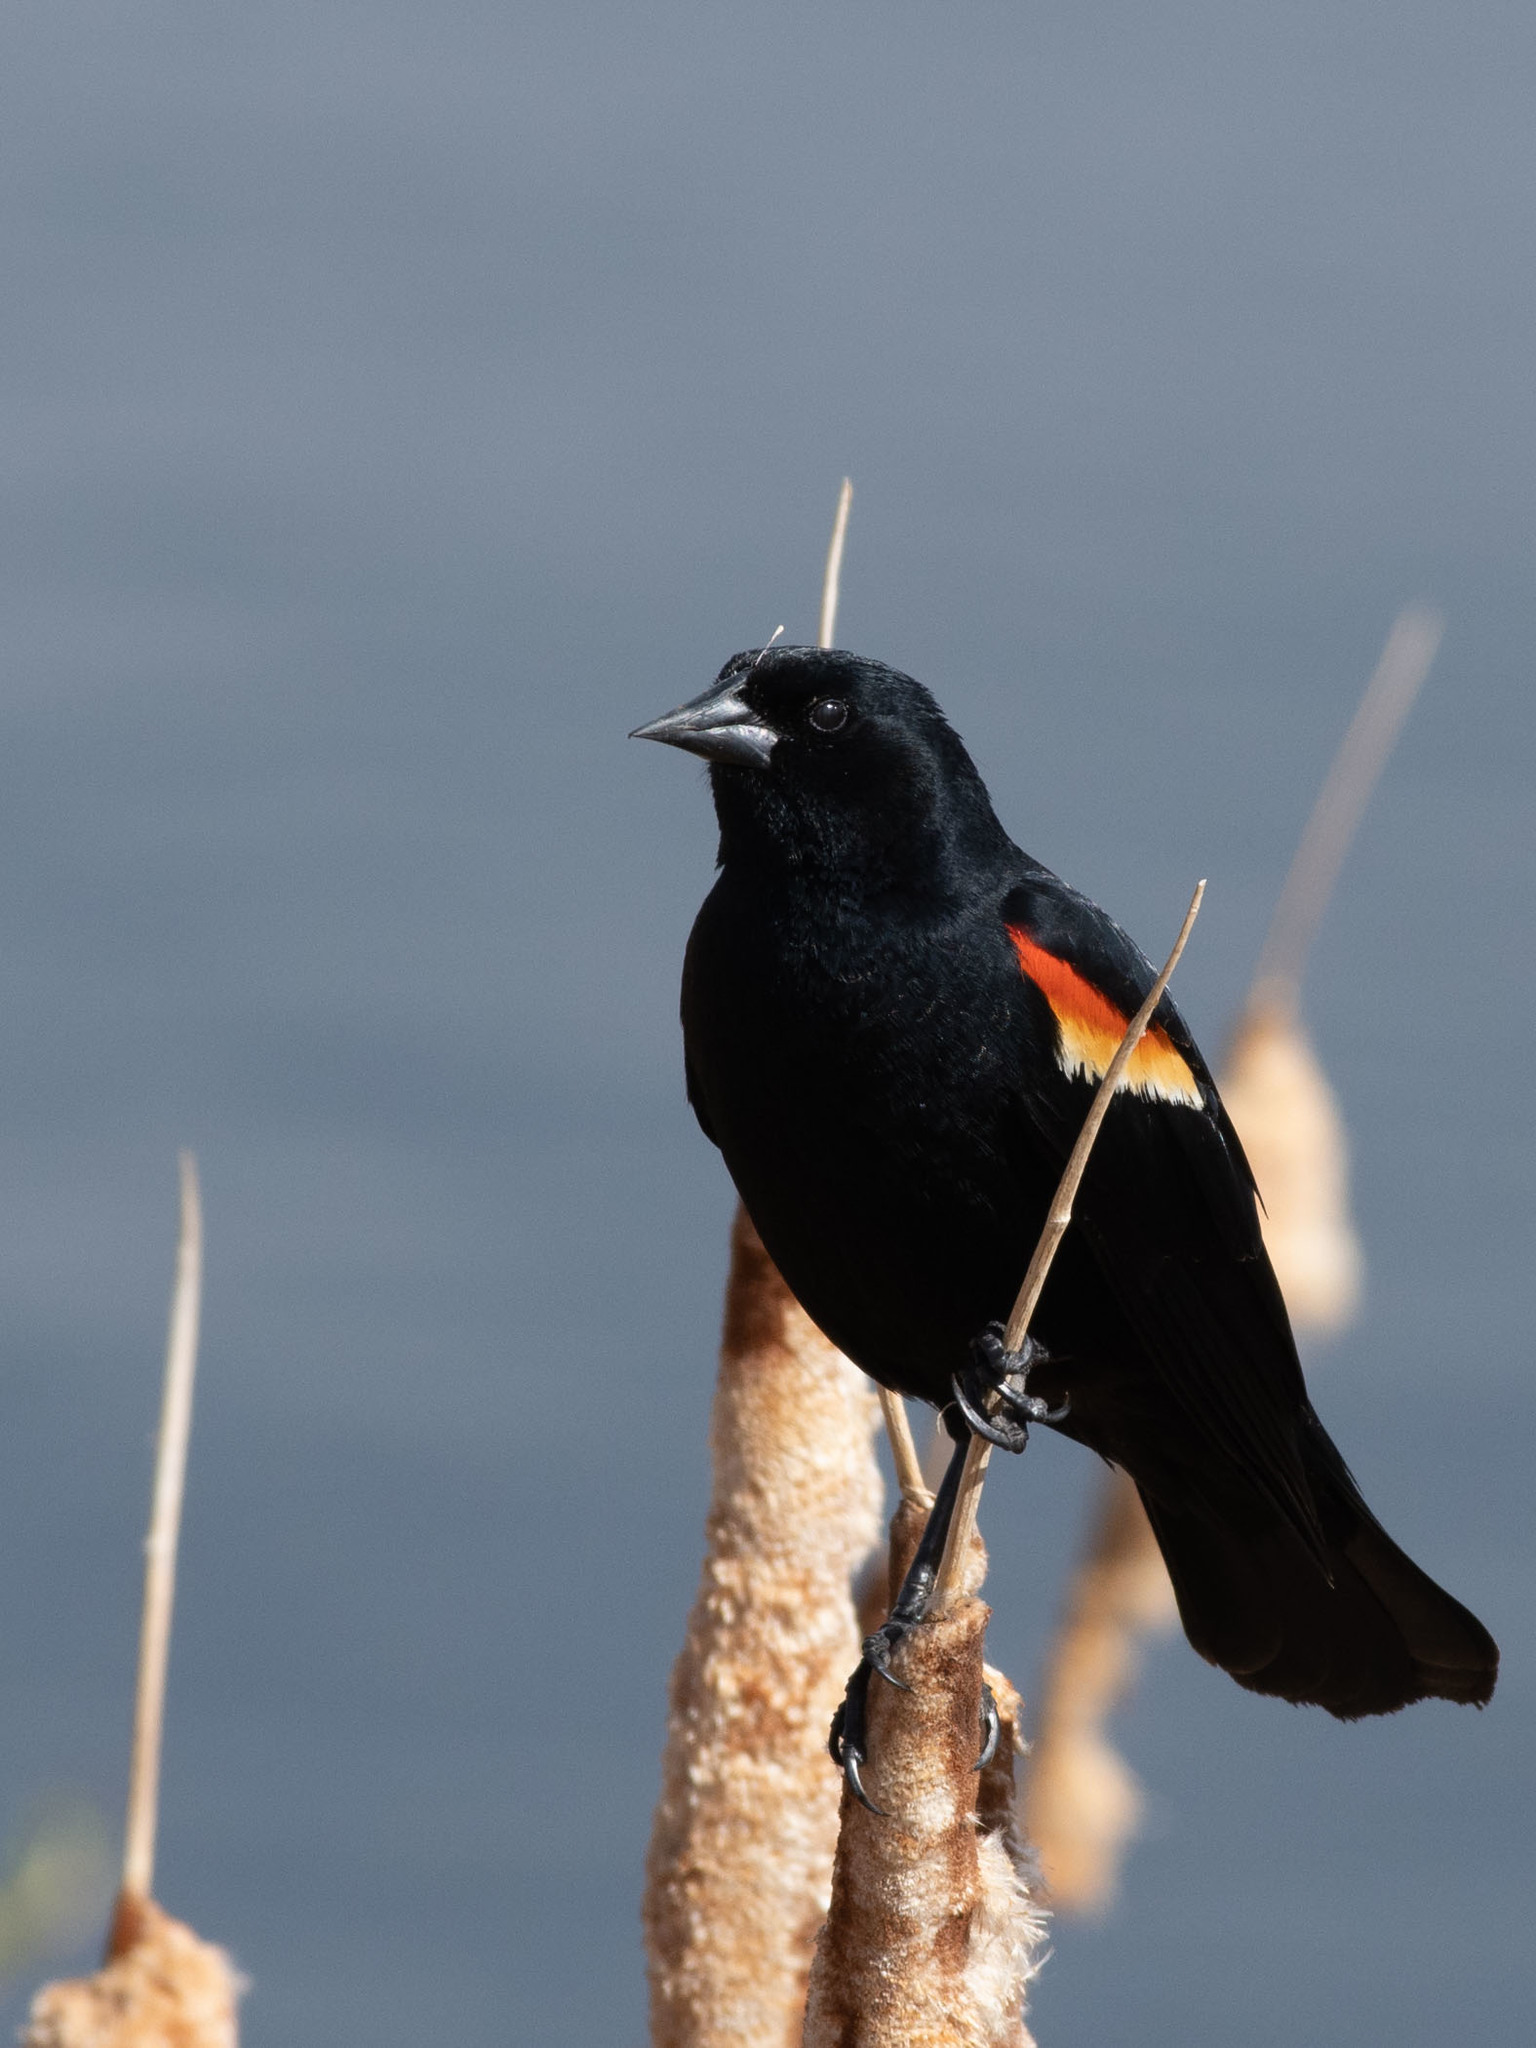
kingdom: Animalia
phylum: Chordata
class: Aves
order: Passeriformes
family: Icteridae
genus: Agelaius
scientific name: Agelaius phoeniceus
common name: Red-winged blackbird
